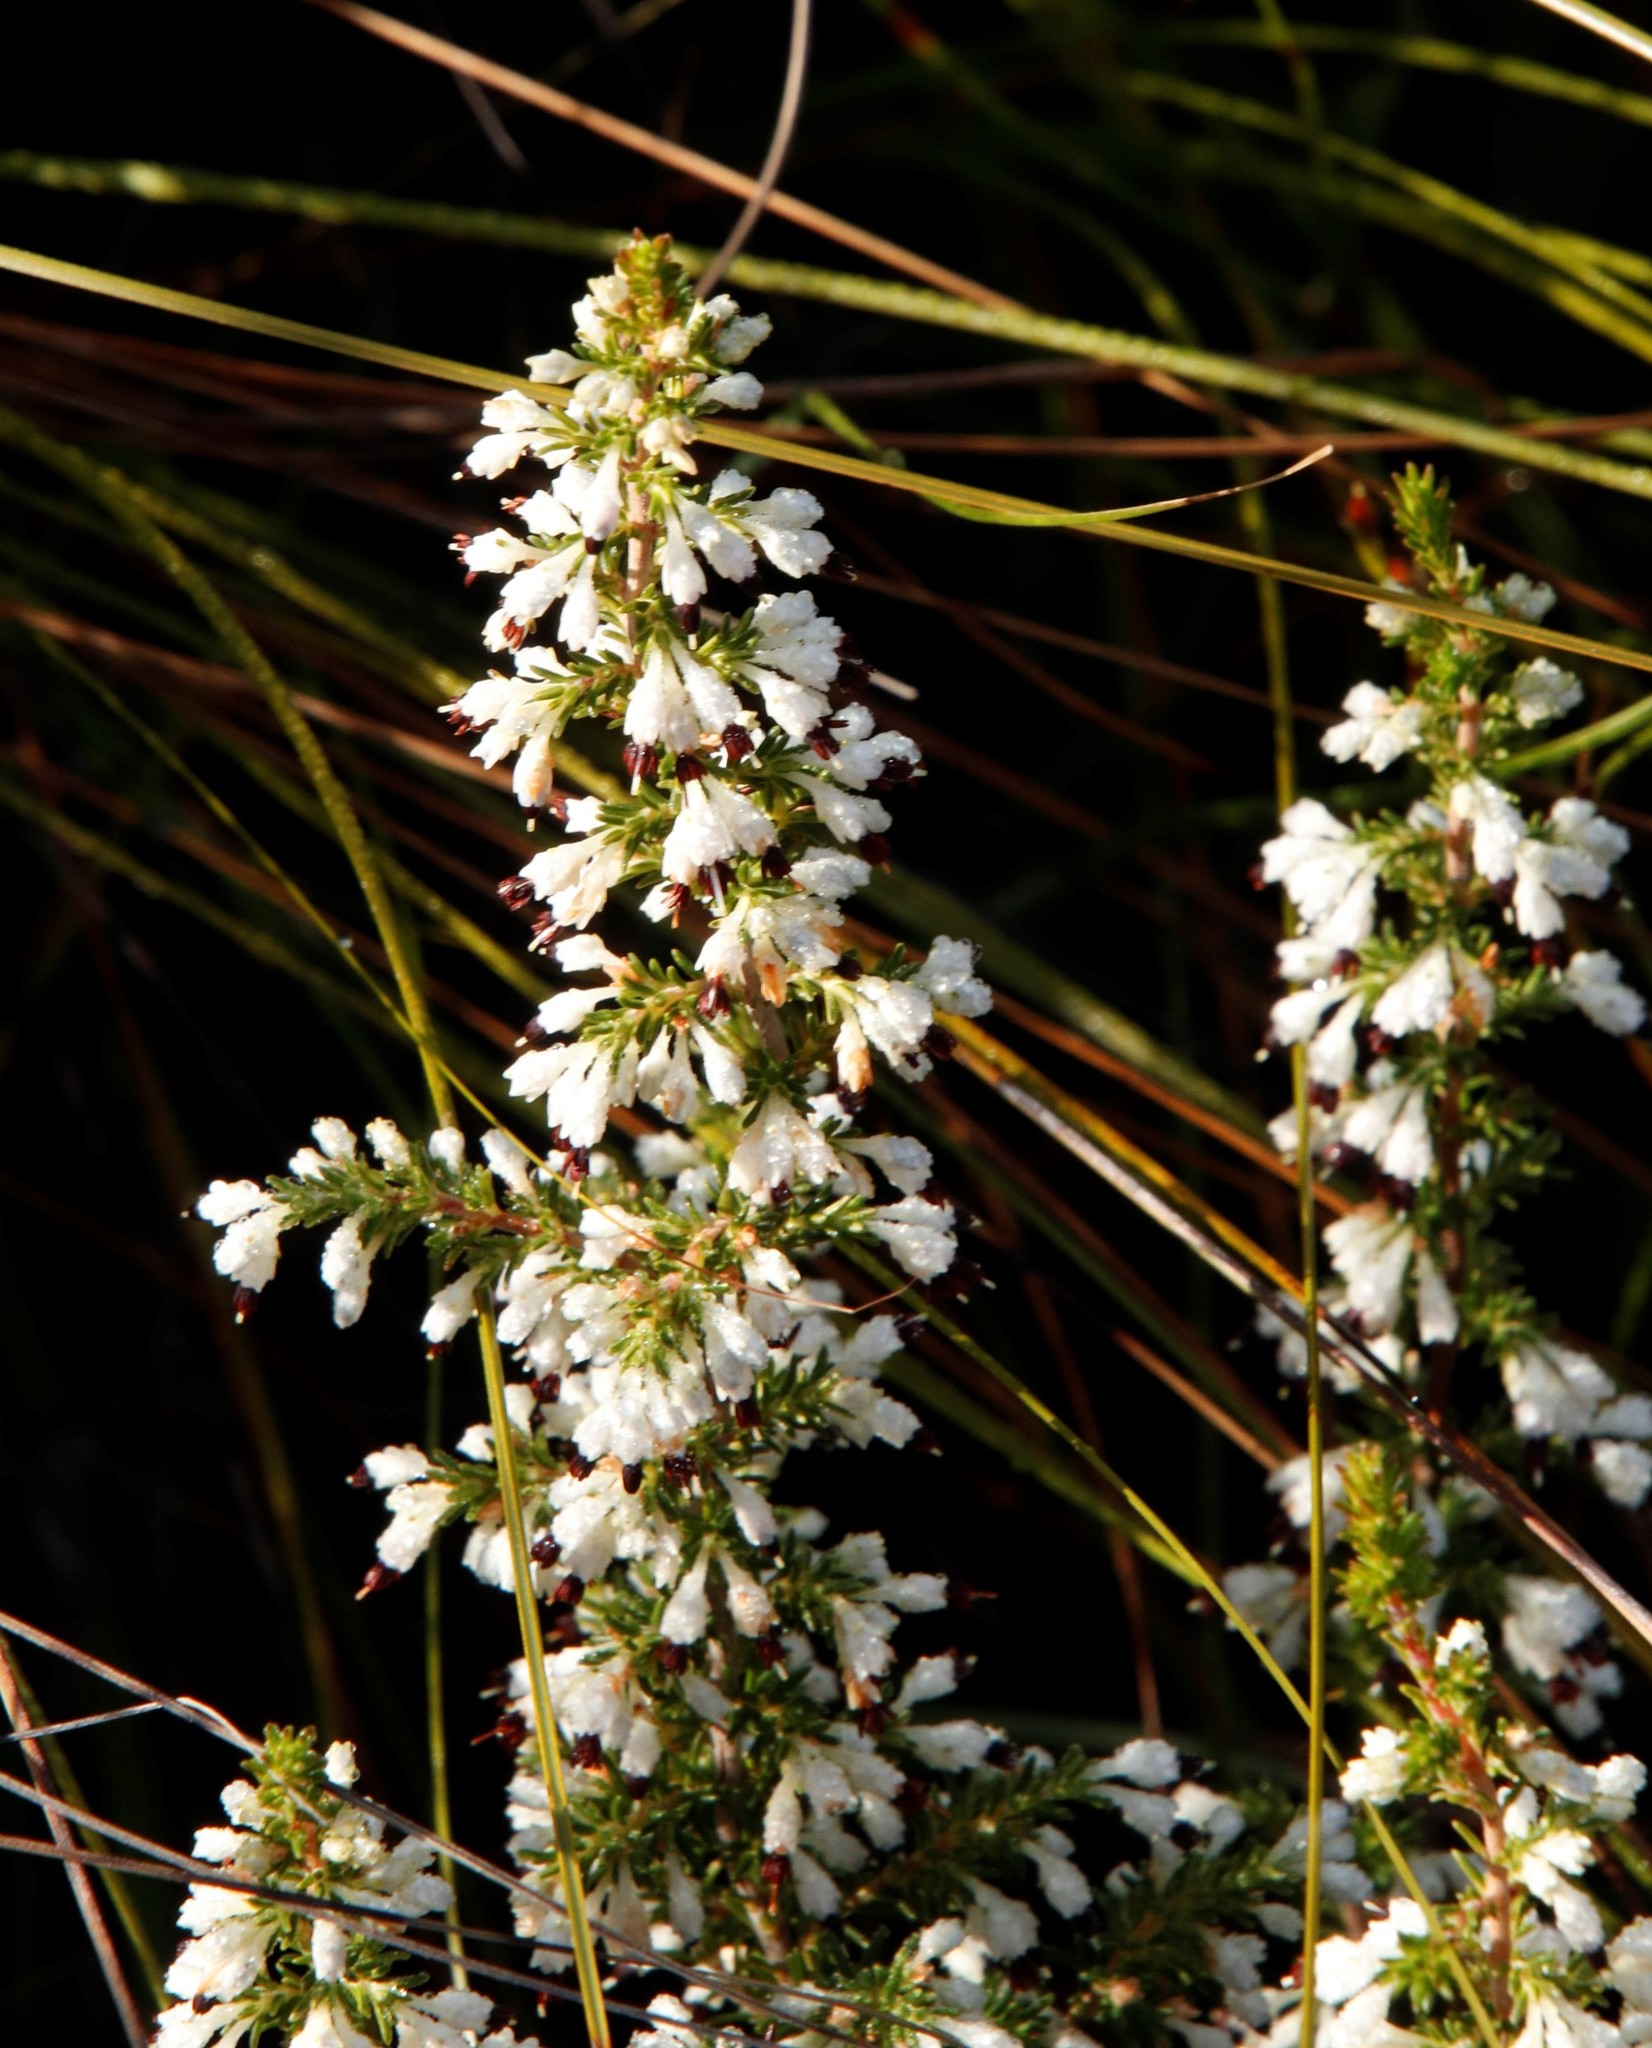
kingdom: Plantae
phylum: Tracheophyta
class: Magnoliopsida
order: Ericales
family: Ericaceae
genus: Erica
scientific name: Erica imbricata
